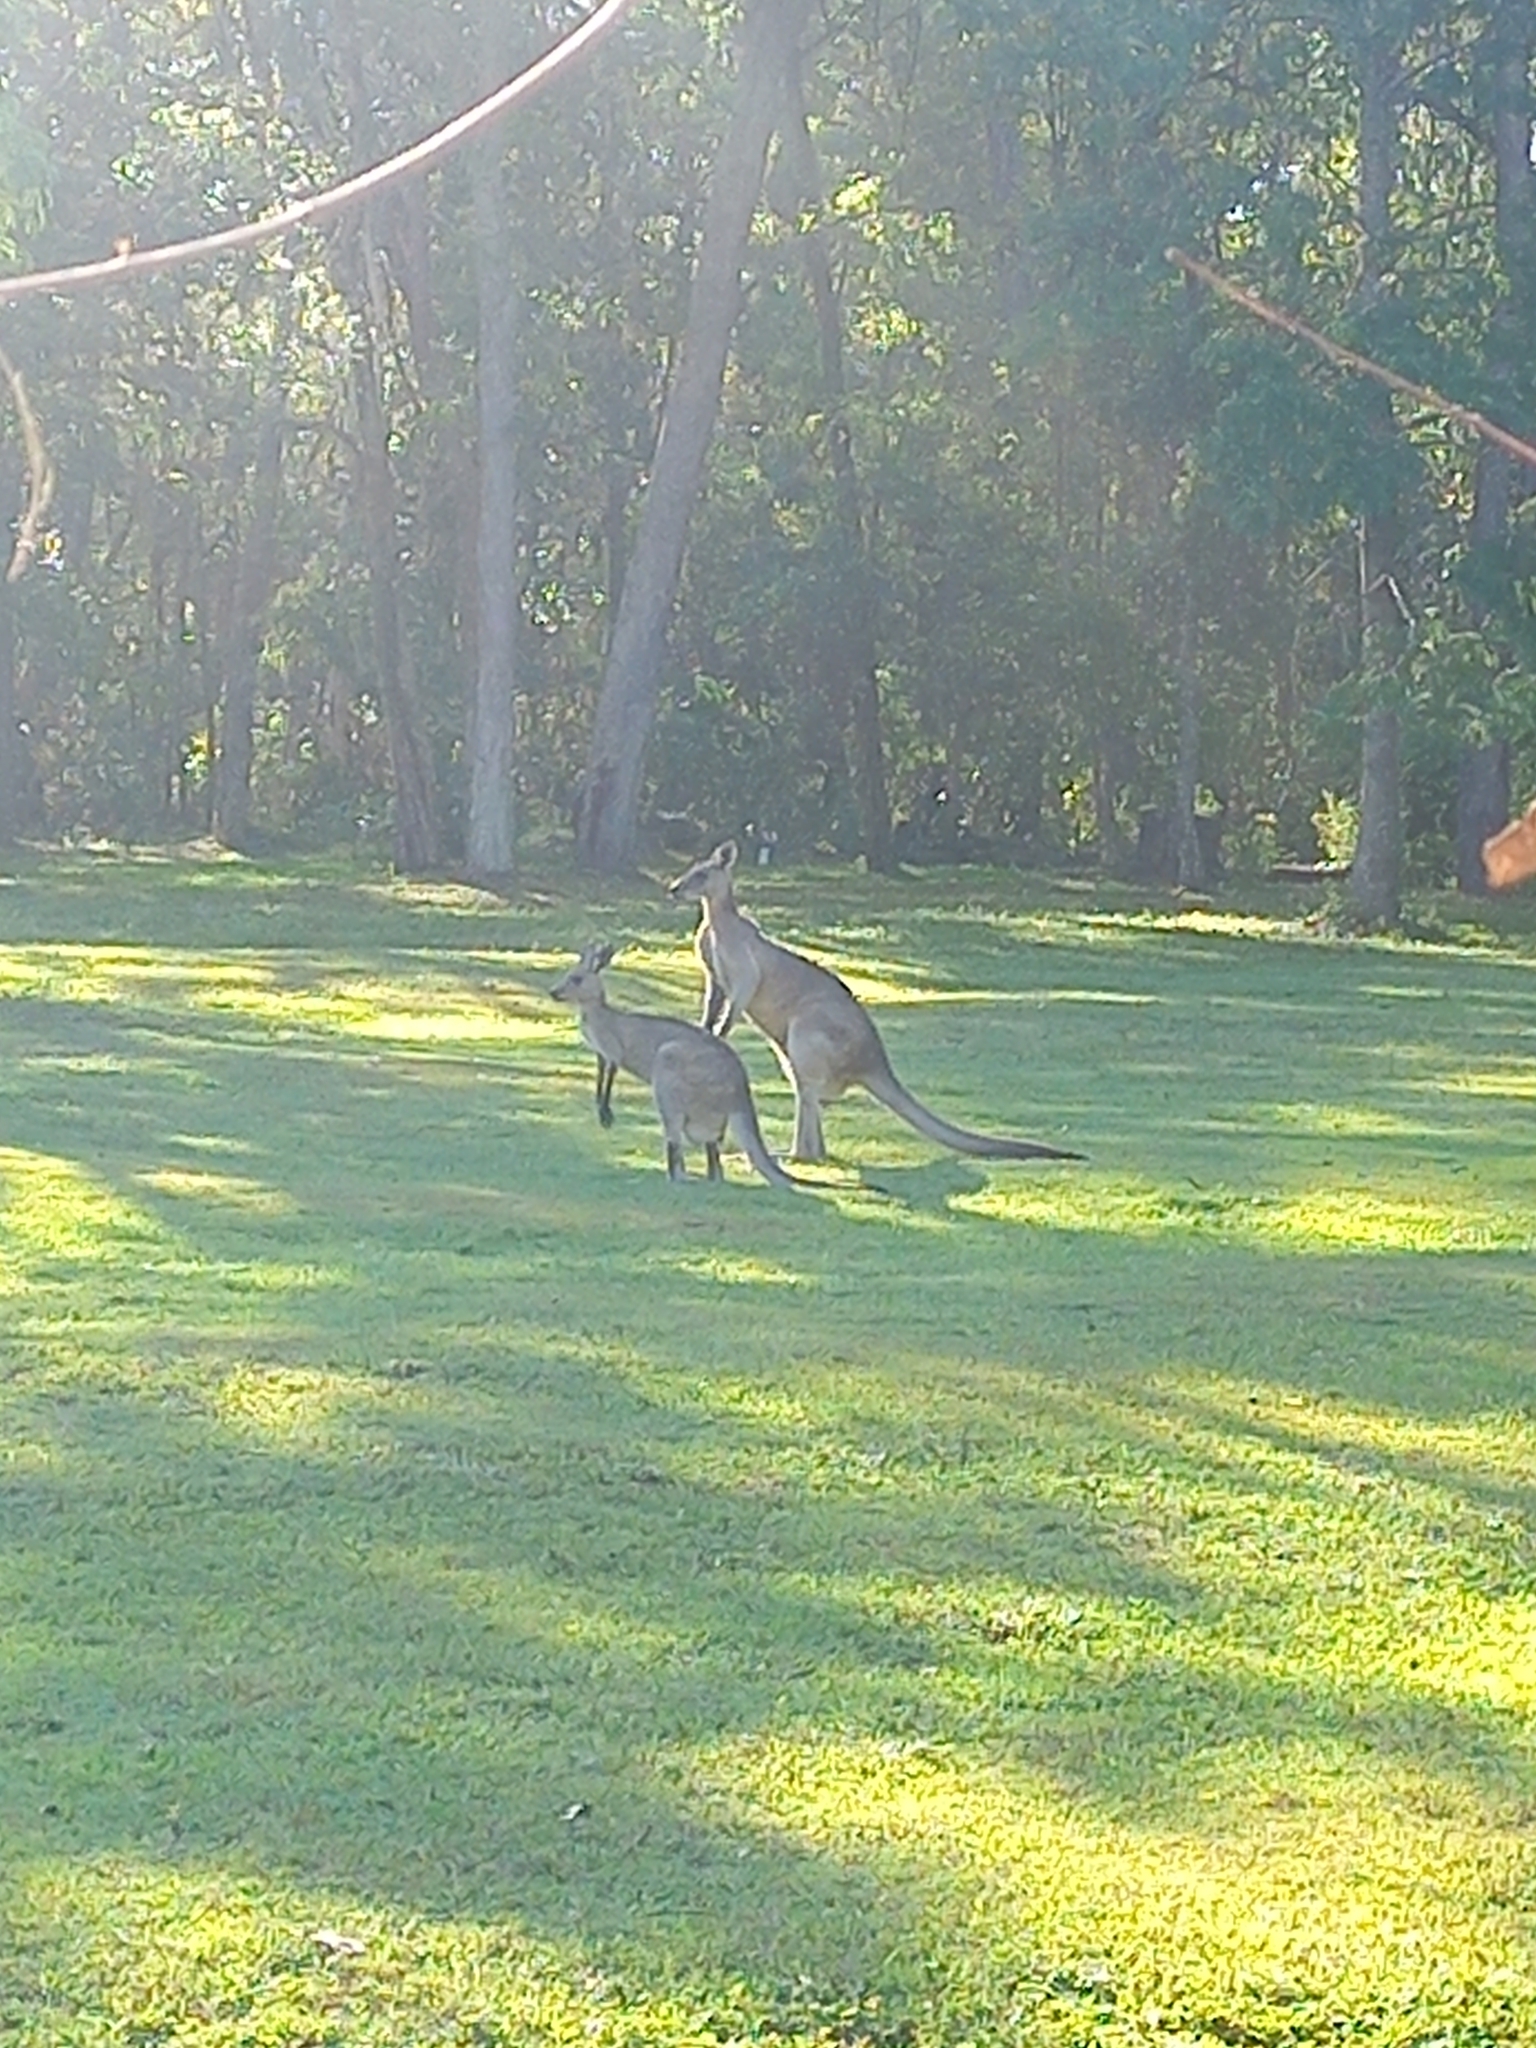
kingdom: Animalia
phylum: Chordata
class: Mammalia
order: Diprotodontia
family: Macropodidae
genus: Macropus
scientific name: Macropus giganteus
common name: Eastern grey kangaroo
